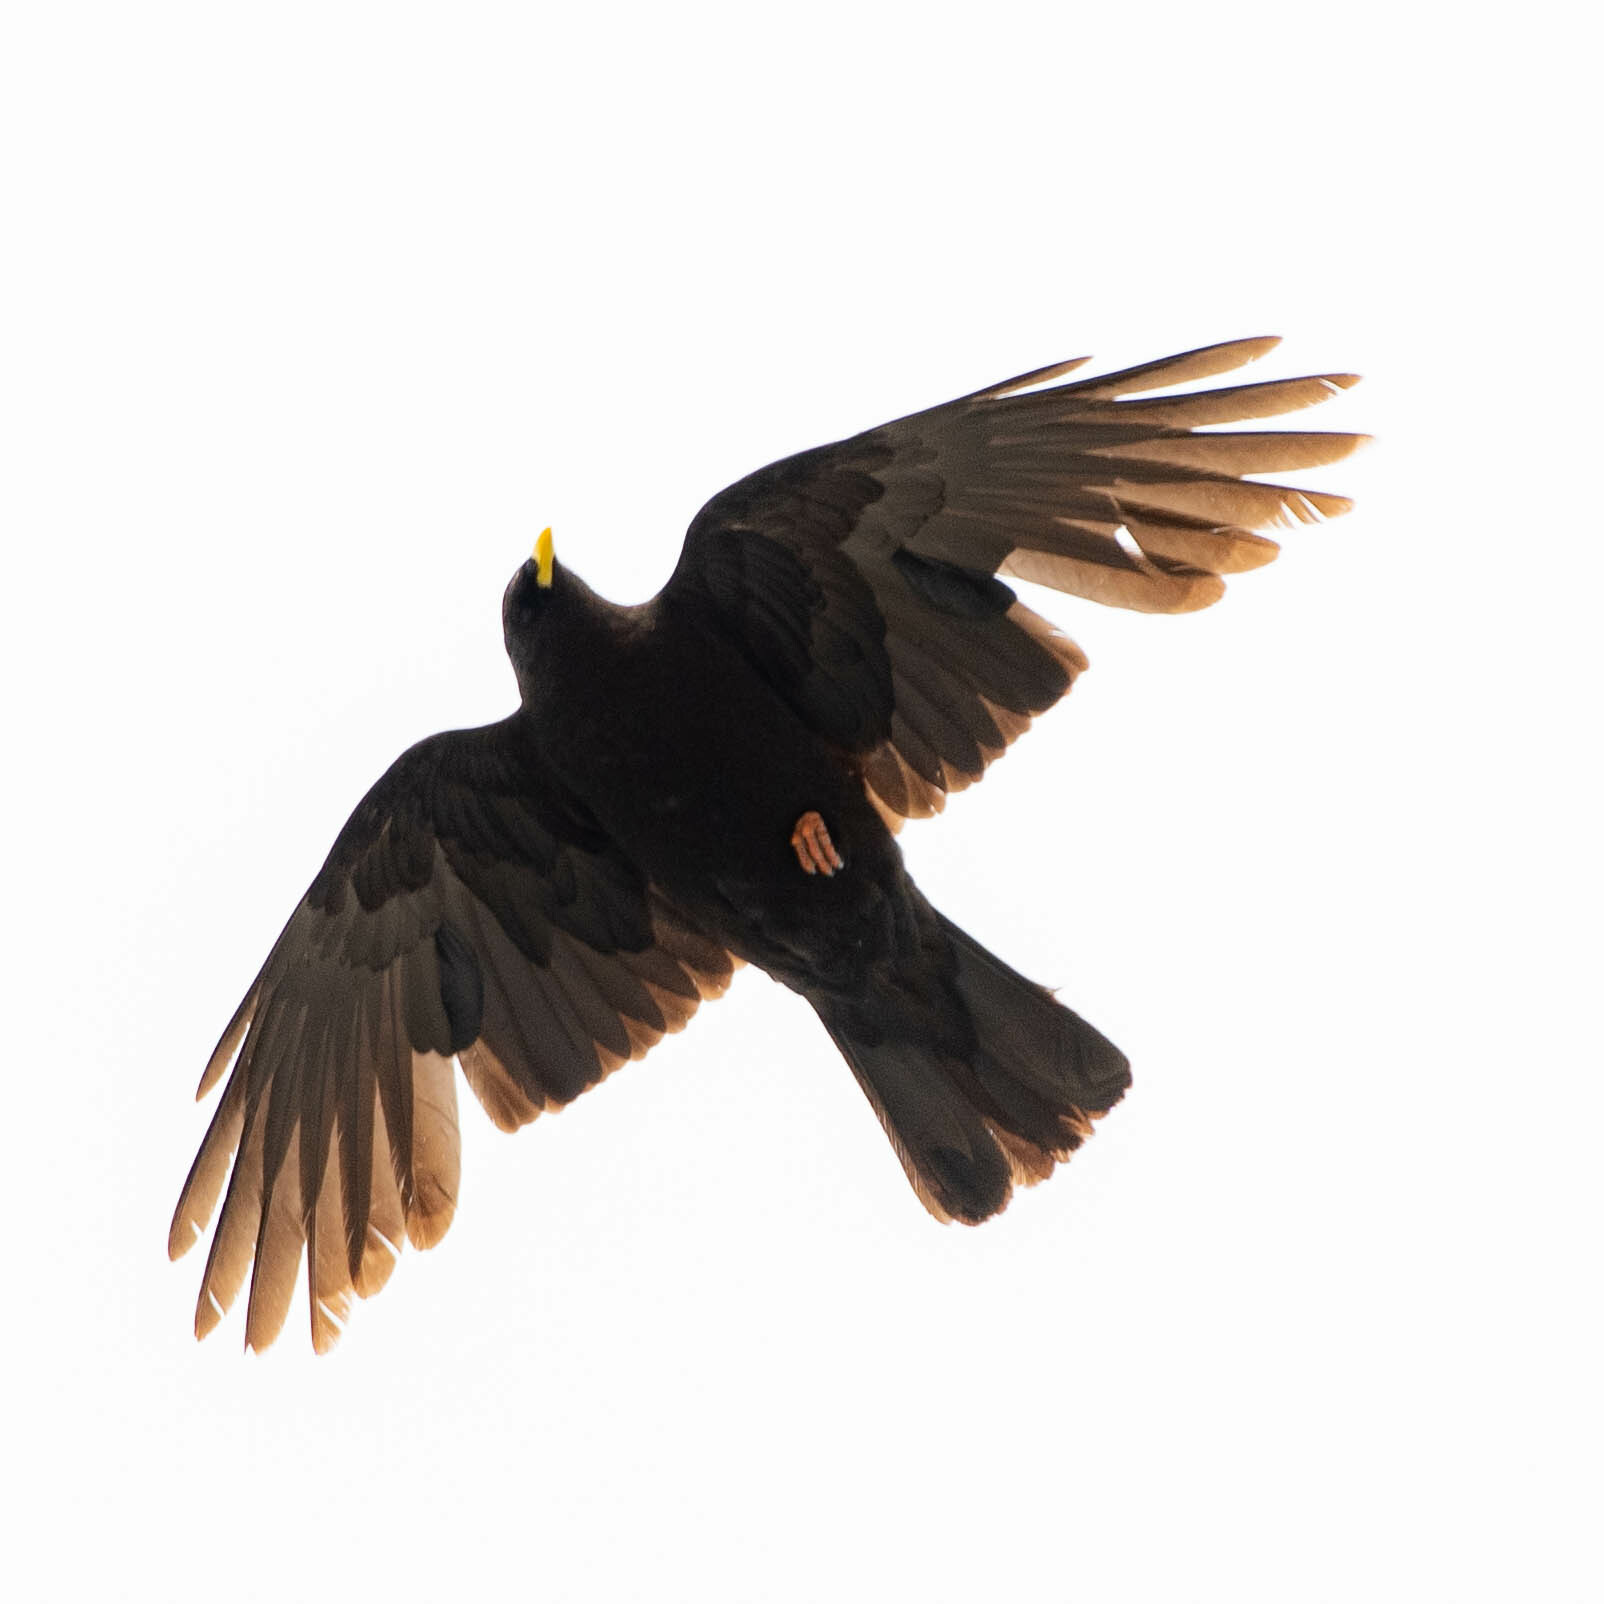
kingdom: Animalia
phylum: Chordata
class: Aves
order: Passeriformes
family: Corvidae
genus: Pyrrhocorax
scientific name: Pyrrhocorax graculus
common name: Alpine chough
